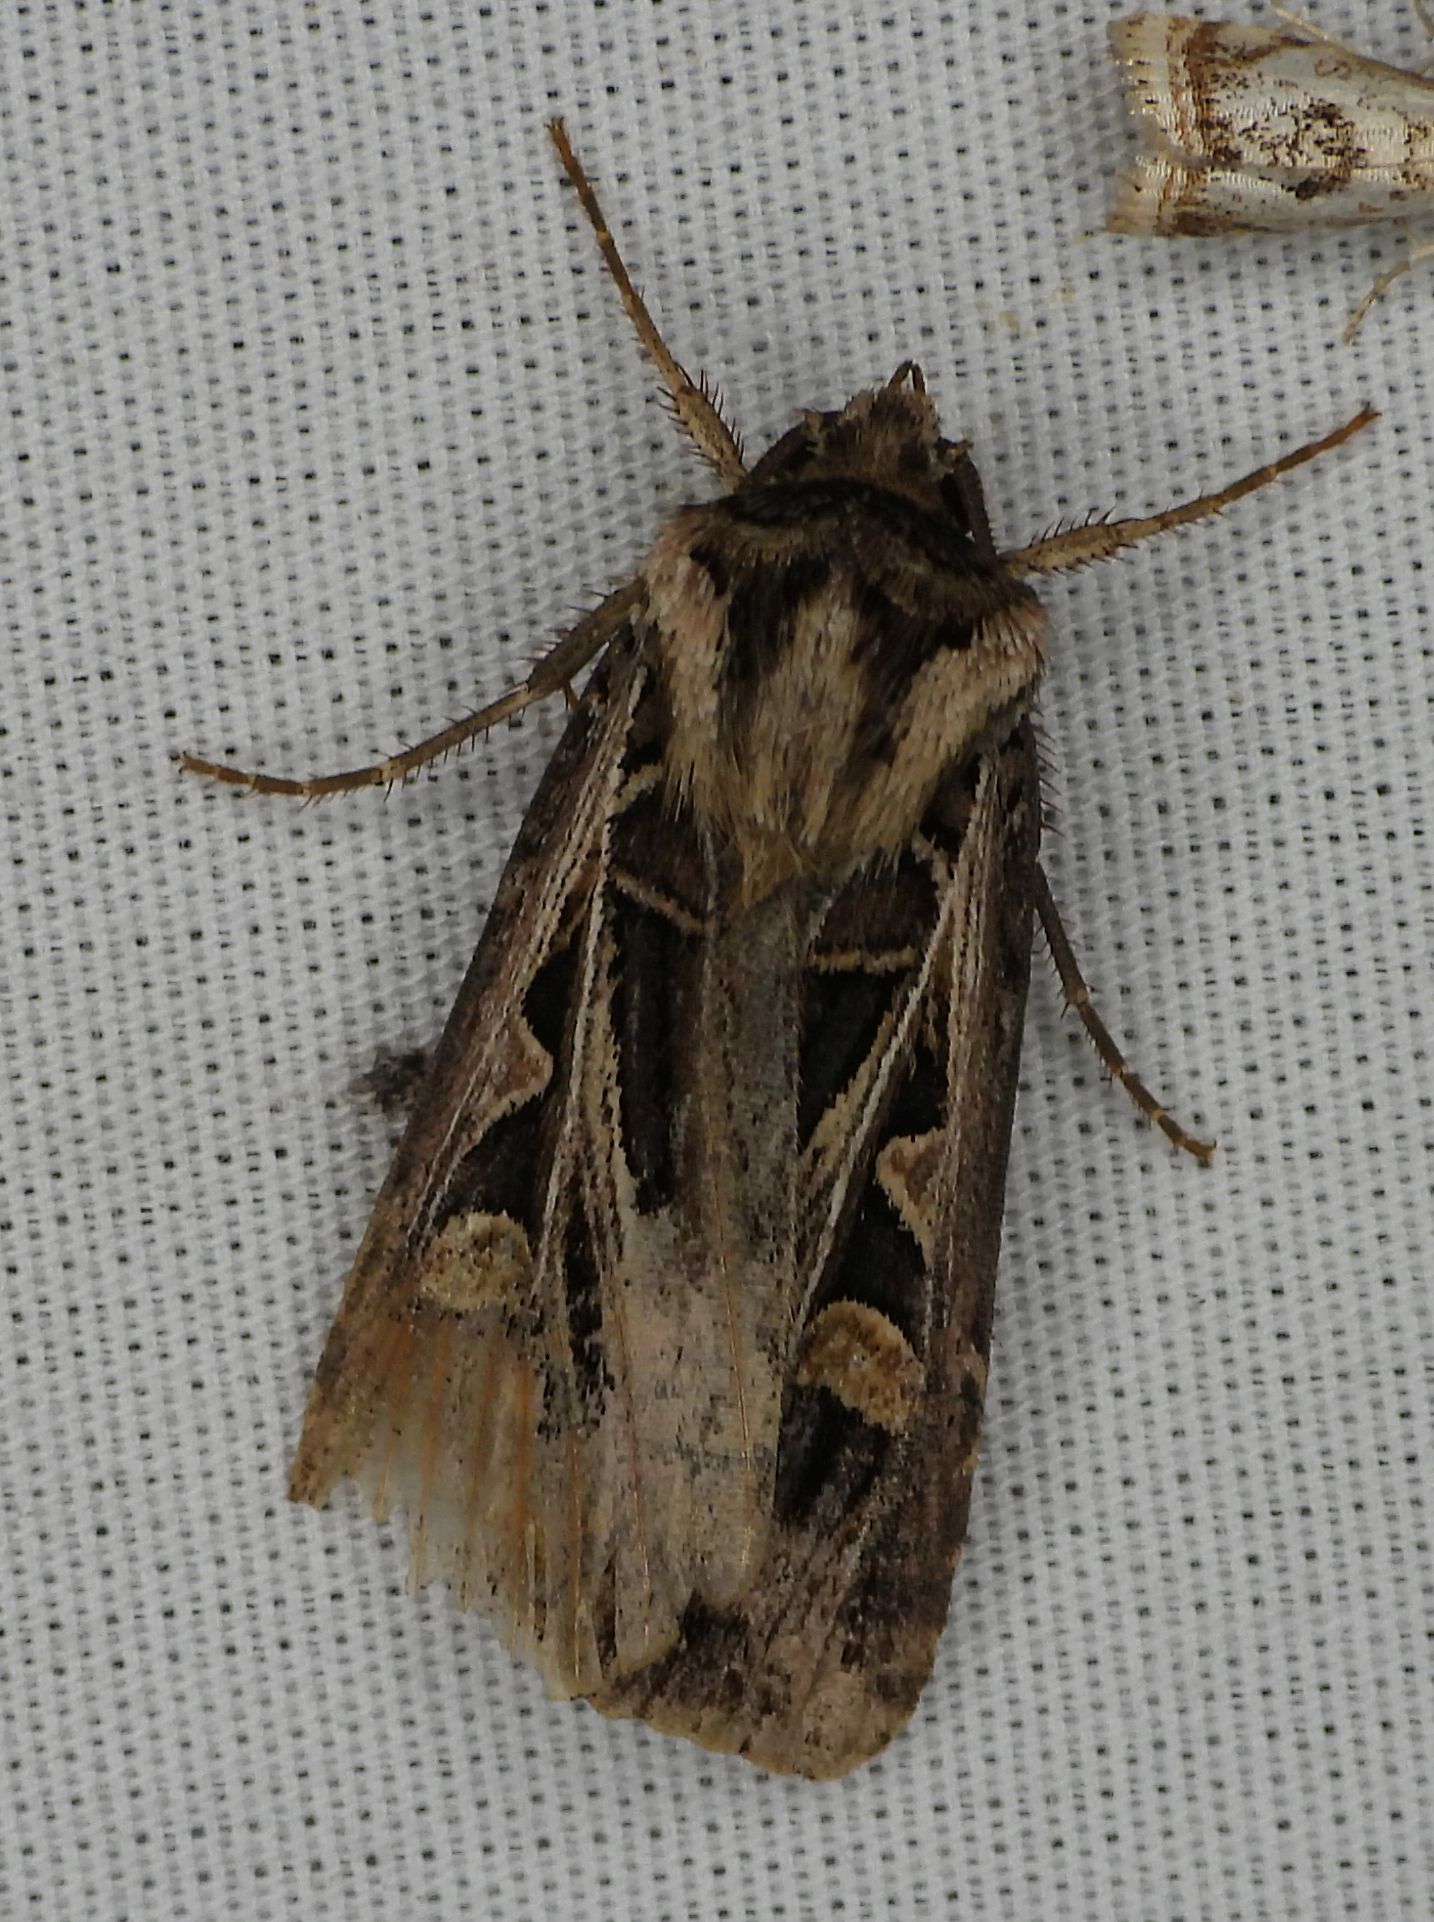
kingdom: Animalia
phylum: Arthropoda
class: Insecta
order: Lepidoptera
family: Noctuidae
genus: Feltia
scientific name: Feltia jaculifera
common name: Dingy cutworm moth
